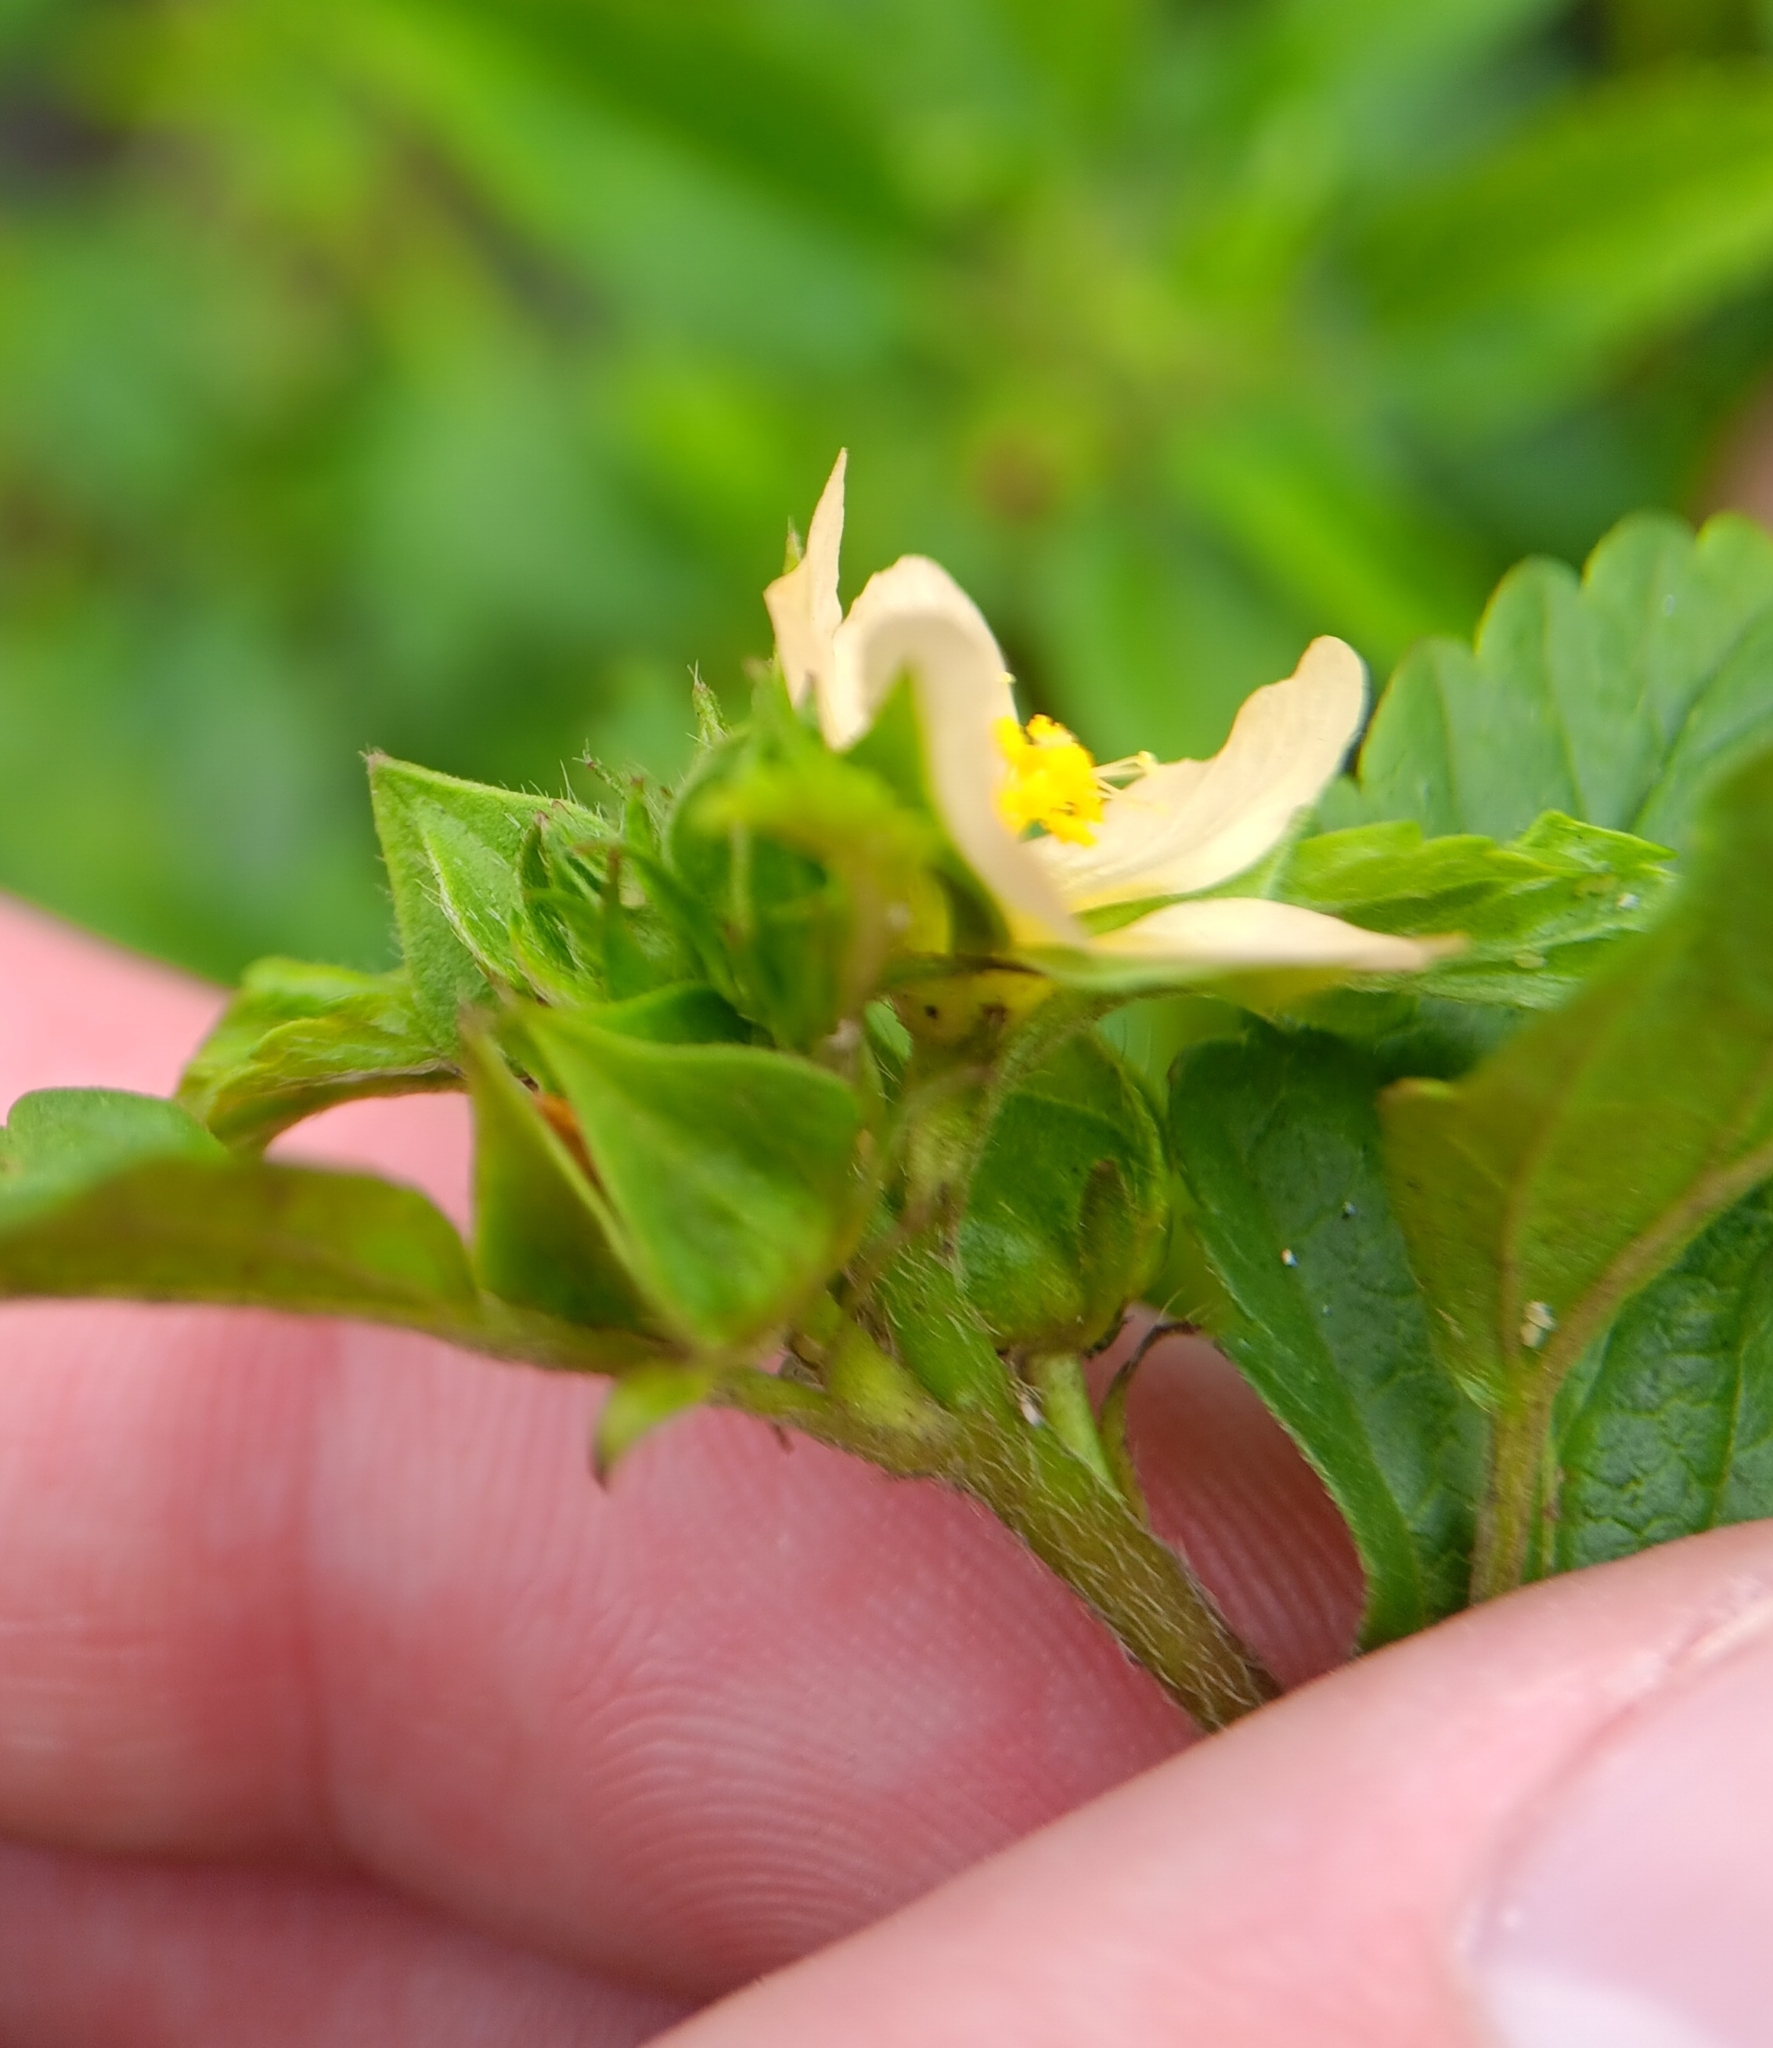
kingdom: Plantae
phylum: Tracheophyta
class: Magnoliopsida
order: Malvales
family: Malvaceae
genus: Malvastrum
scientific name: Malvastrum coromandelianum
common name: Threelobe false mallow
